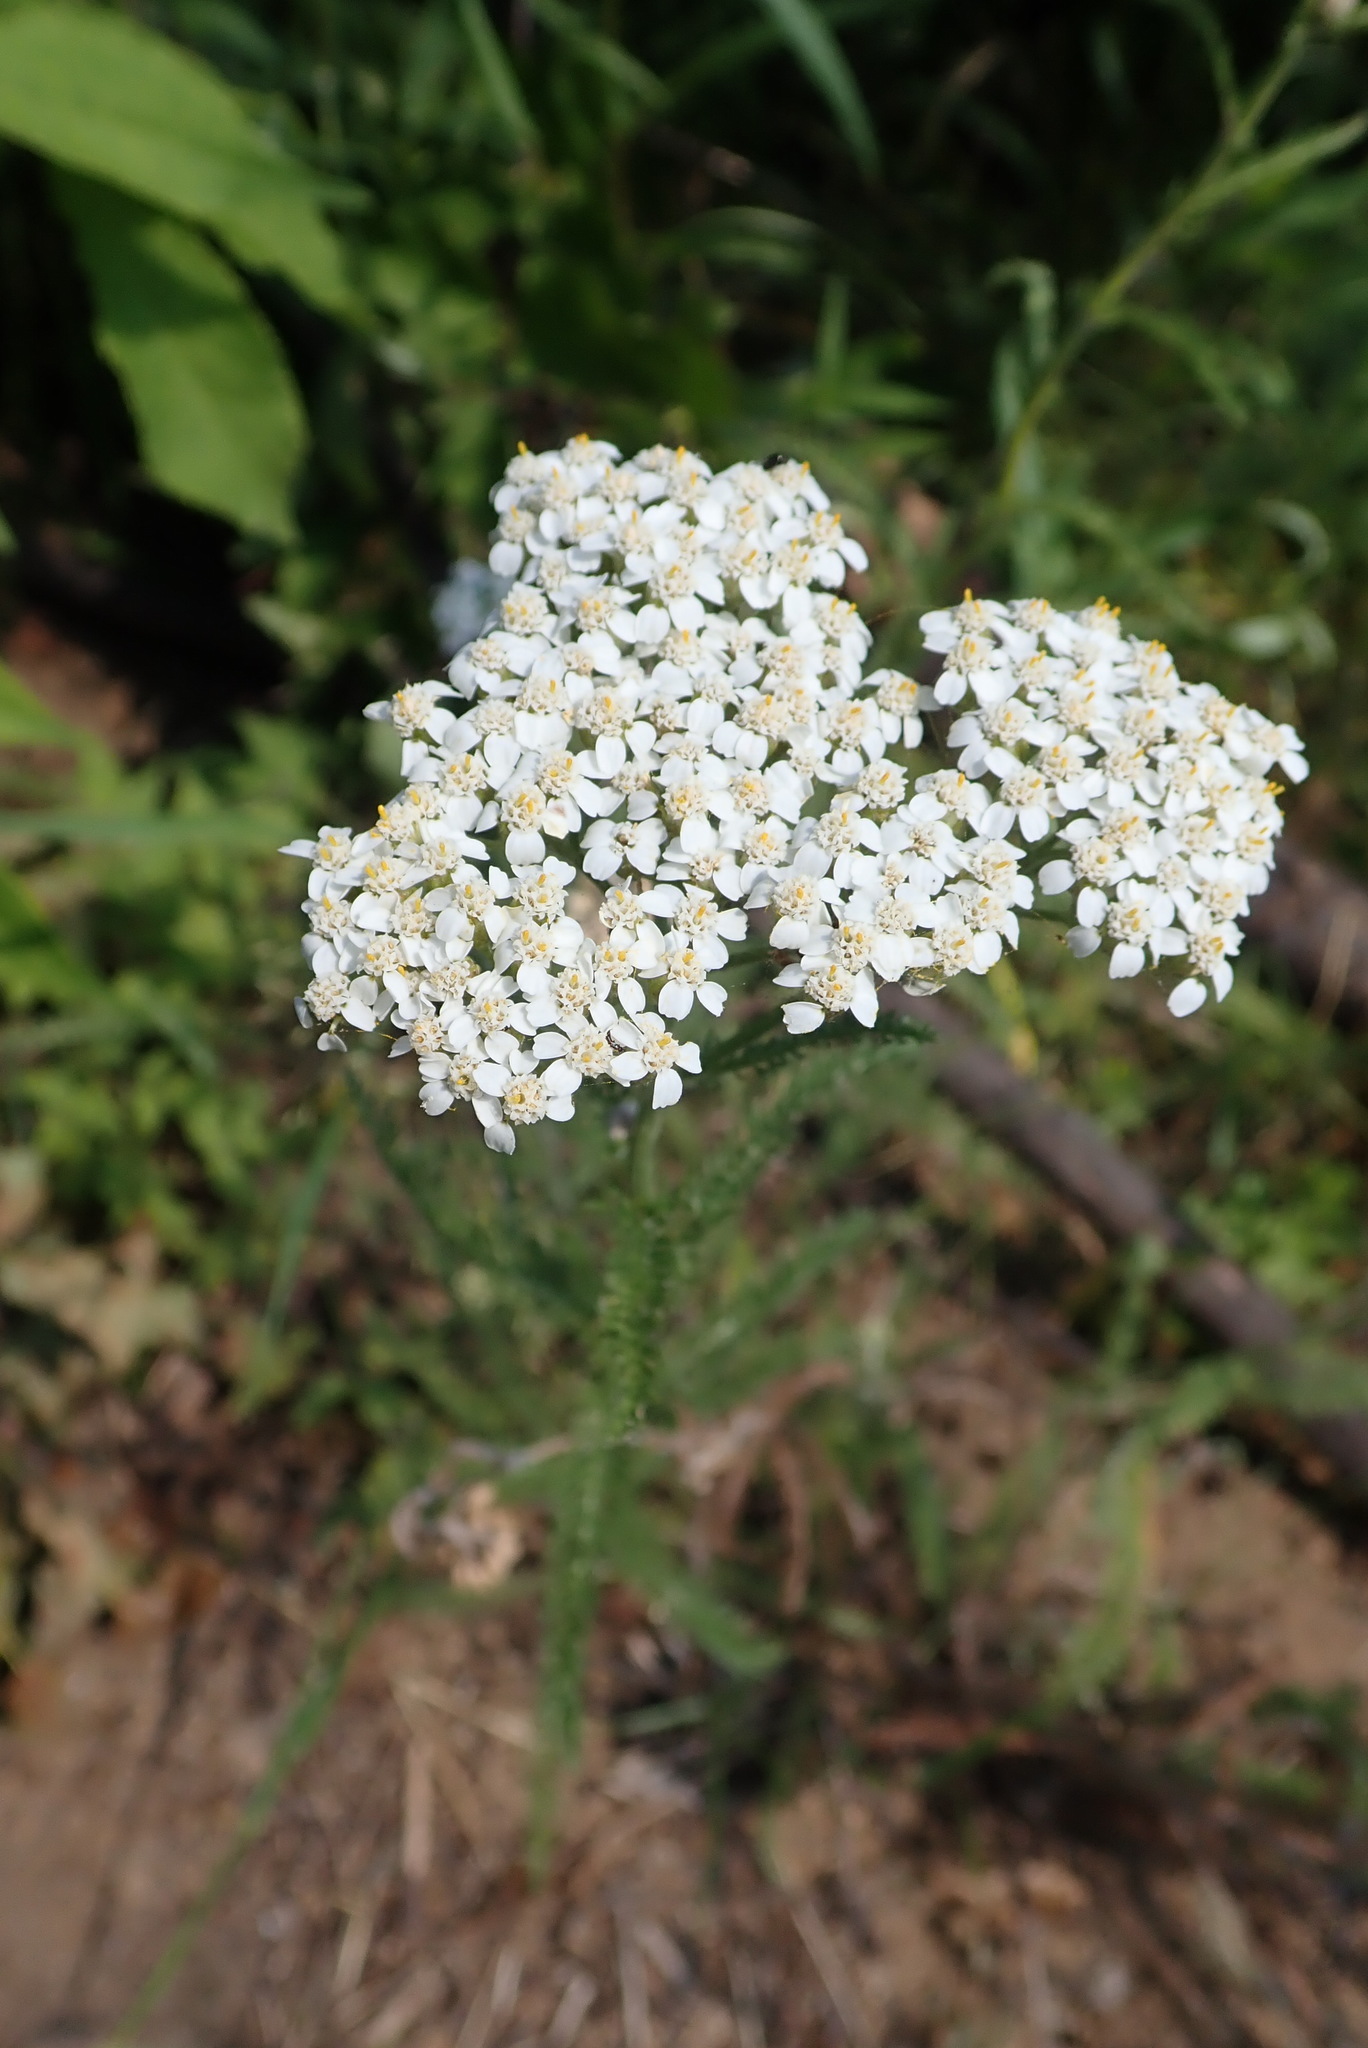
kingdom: Plantae
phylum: Tracheophyta
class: Magnoliopsida
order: Asterales
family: Asteraceae
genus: Achillea
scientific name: Achillea millefolium
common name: Yarrow
